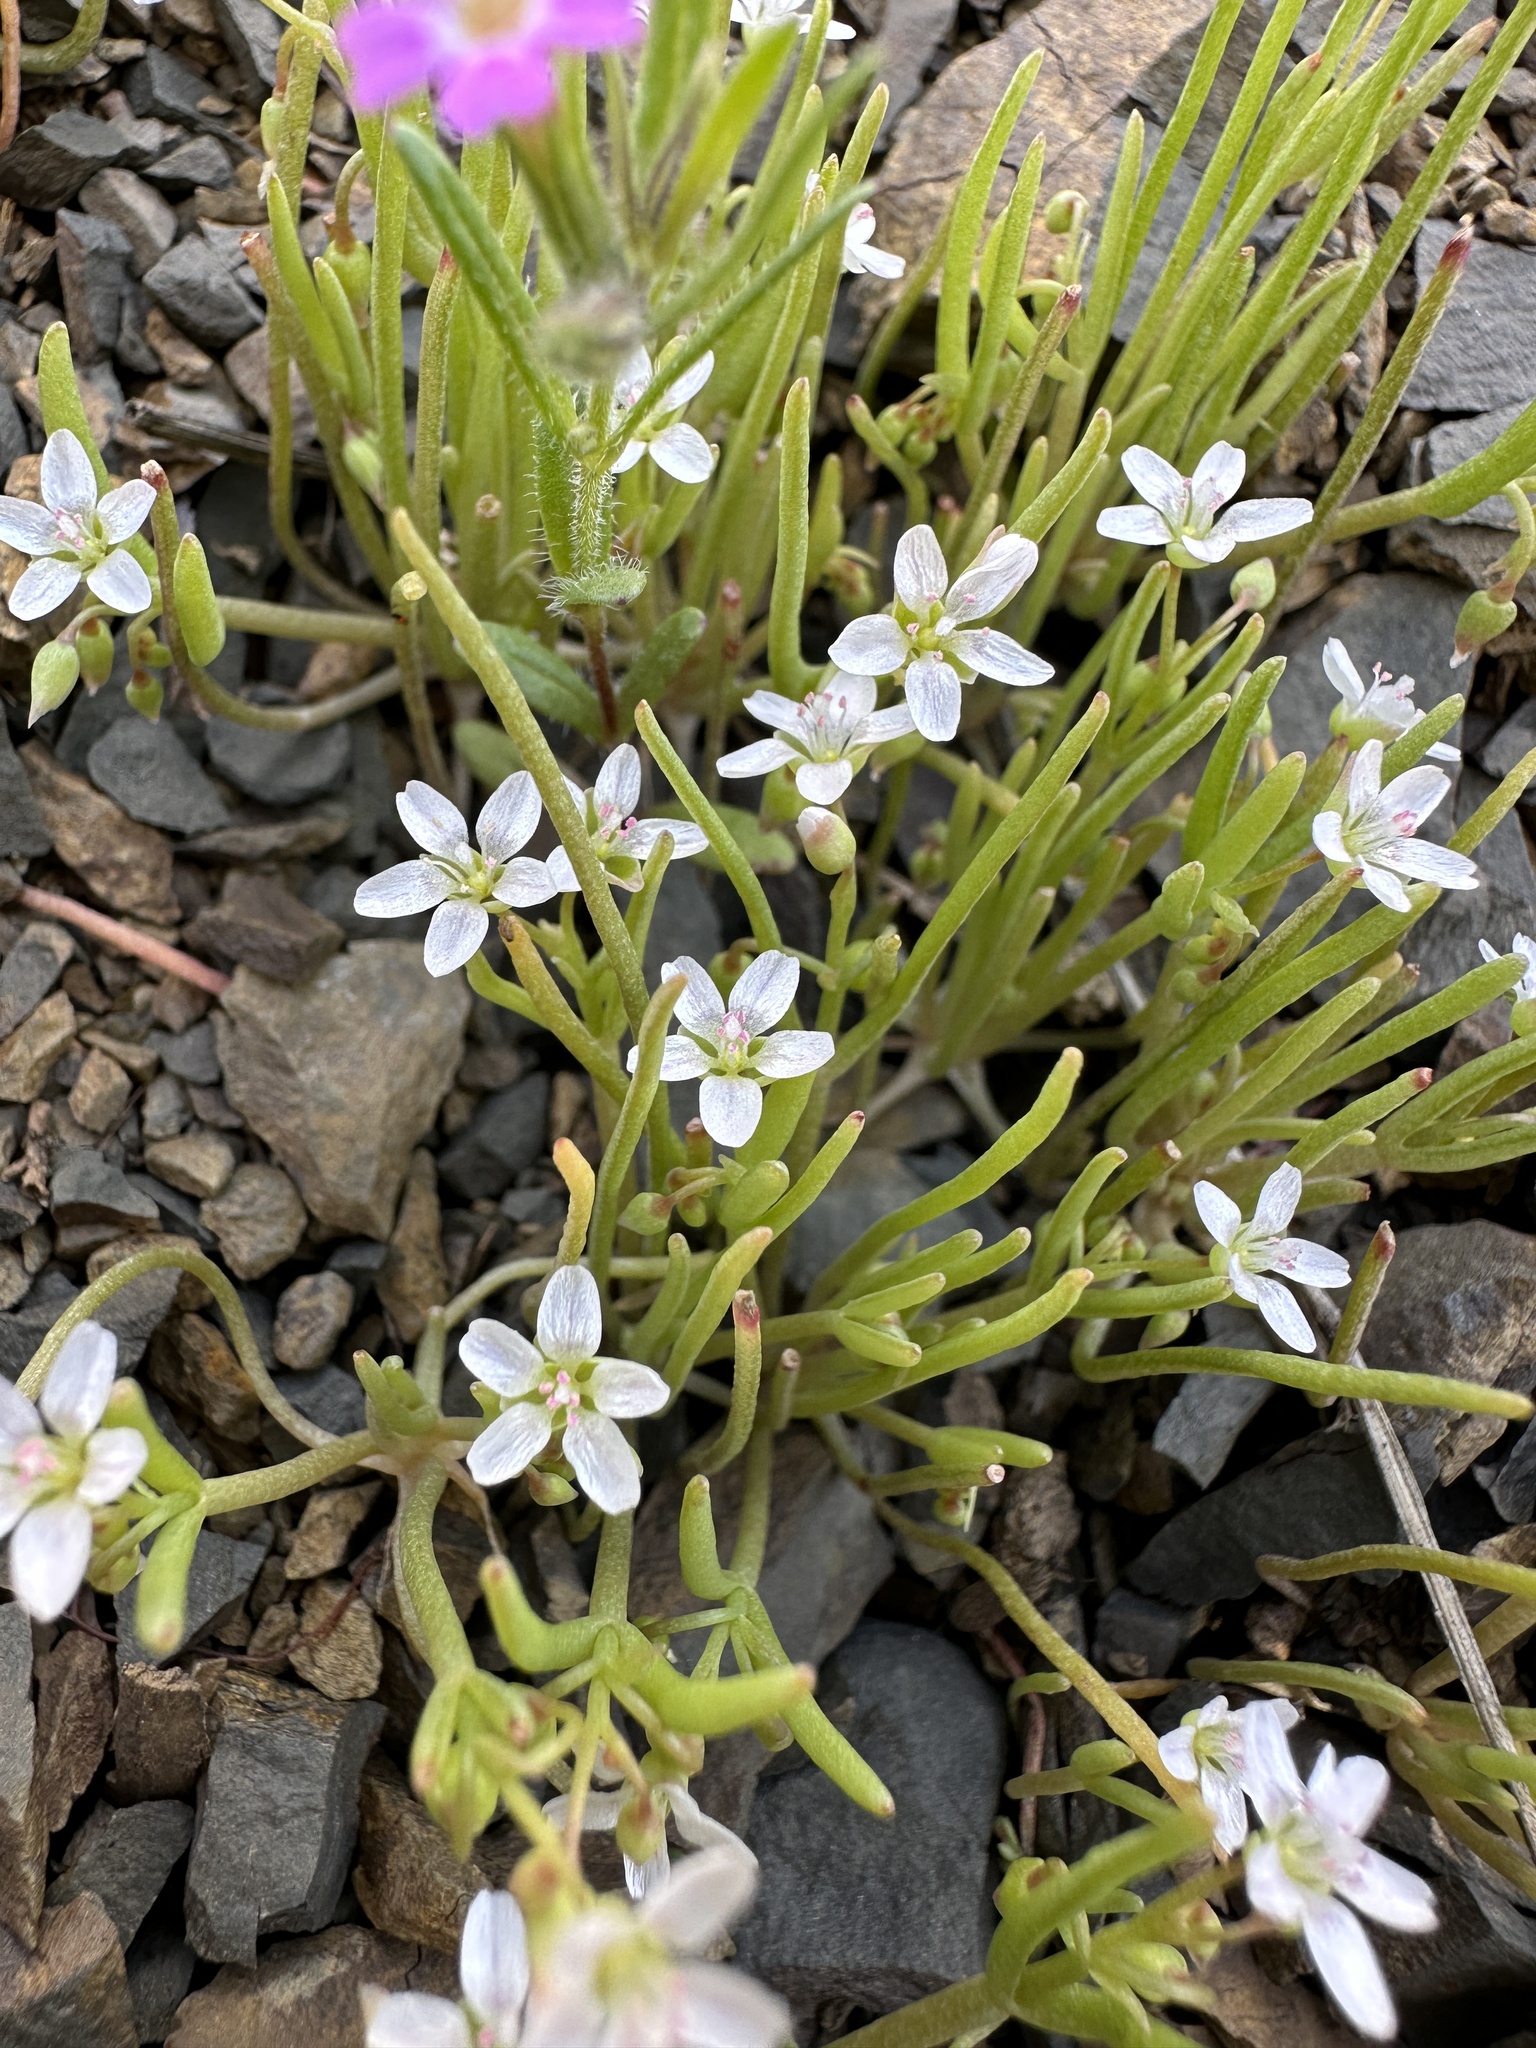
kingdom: Plantae
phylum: Tracheophyta
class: Magnoliopsida
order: Caryophyllales
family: Montiaceae
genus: Claytonia
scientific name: Claytonia exigua
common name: Pale spring beauty
